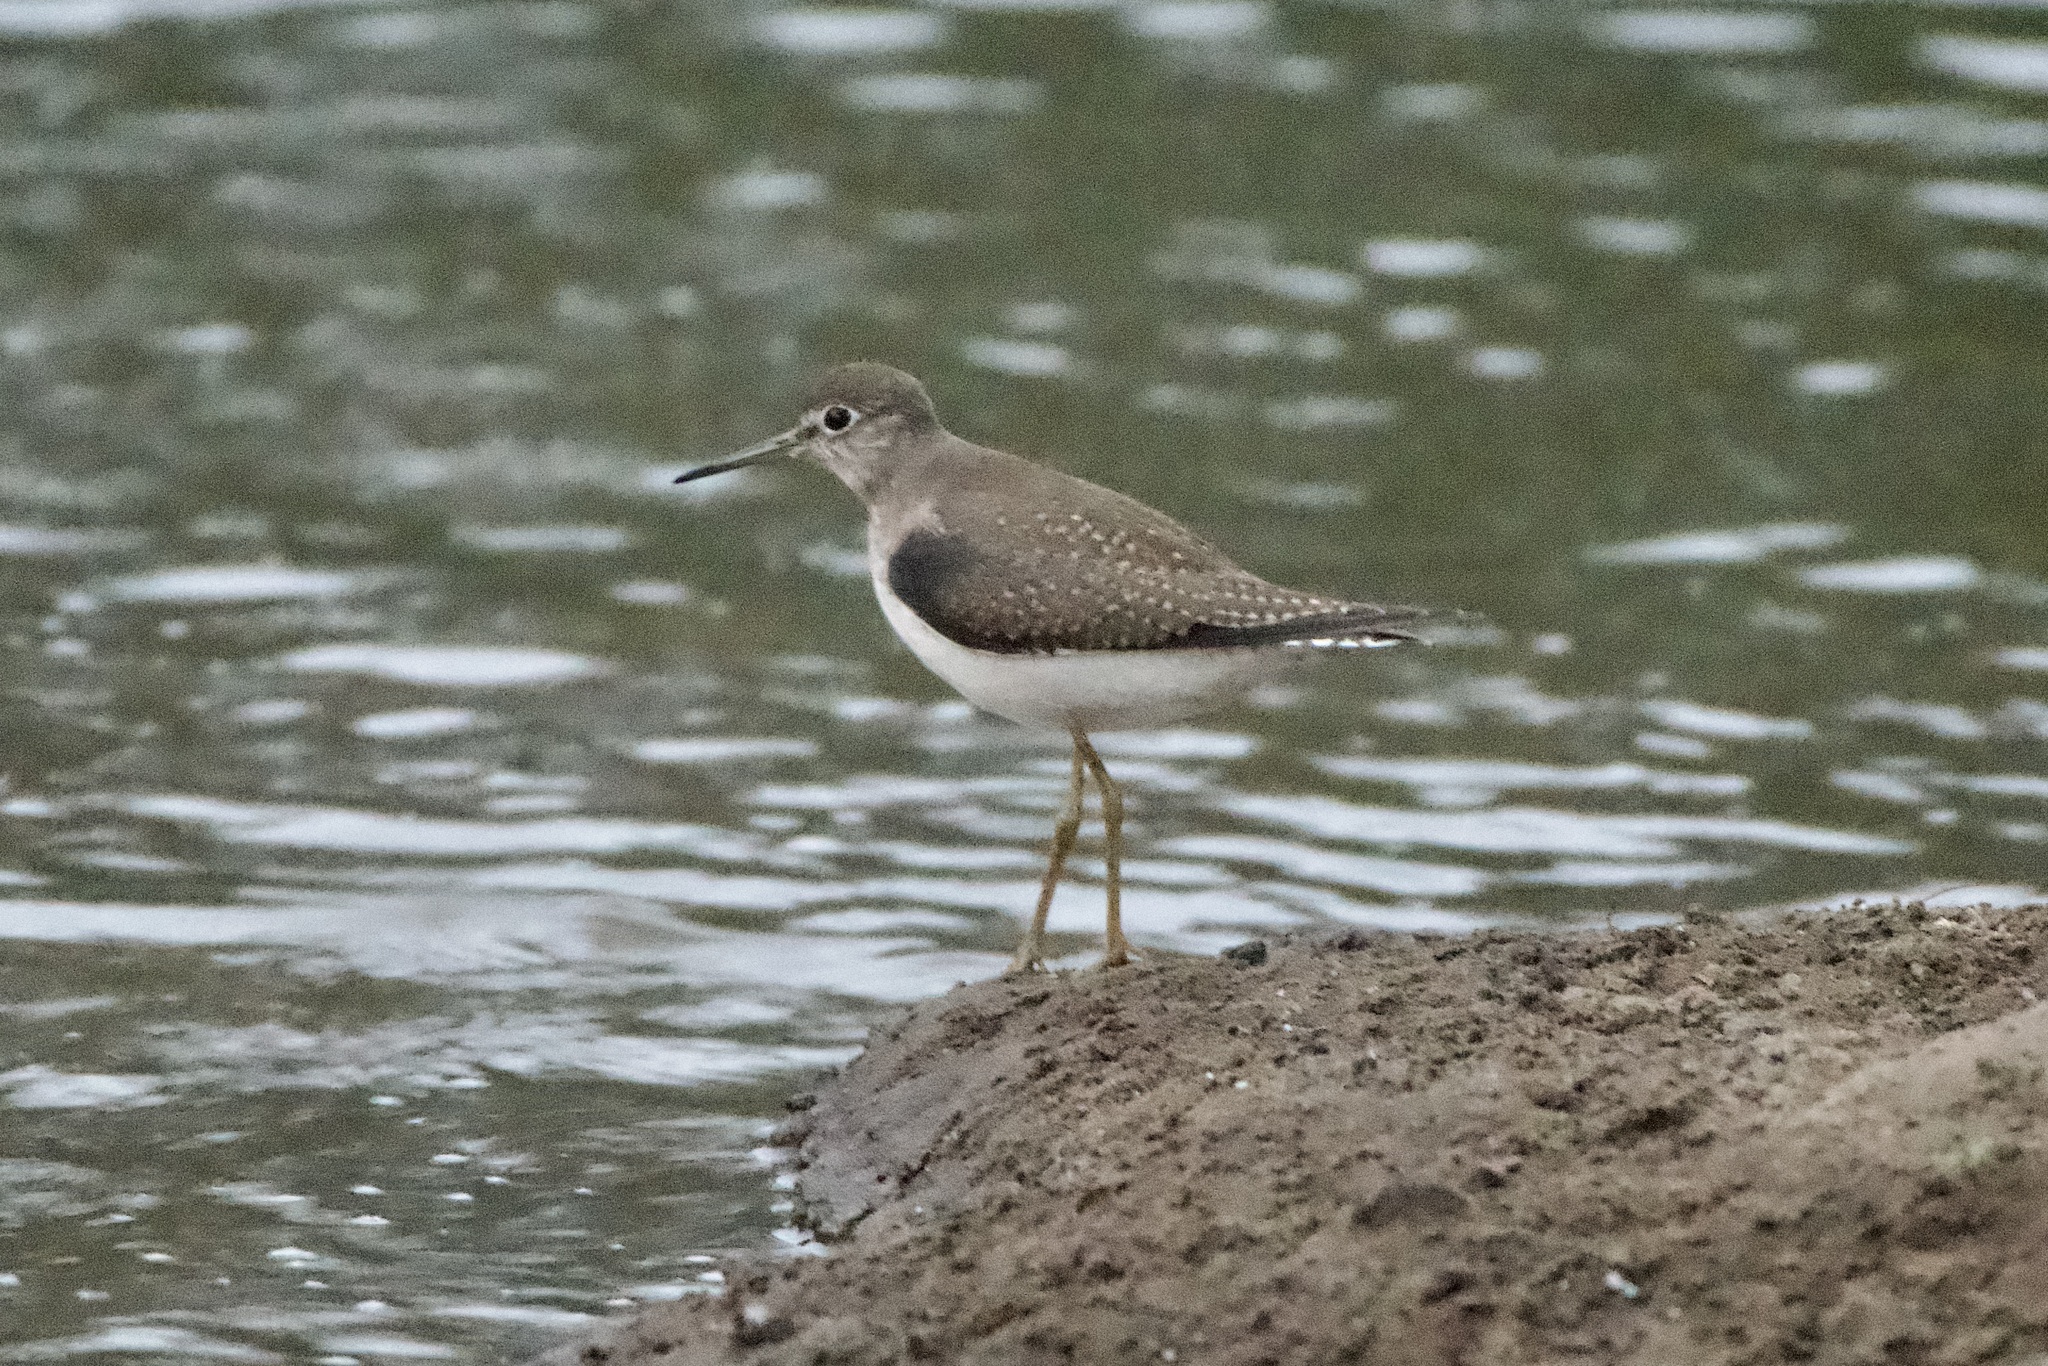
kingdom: Animalia
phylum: Chordata
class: Aves
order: Charadriiformes
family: Scolopacidae
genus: Tringa
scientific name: Tringa solitaria
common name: Solitary sandpiper
